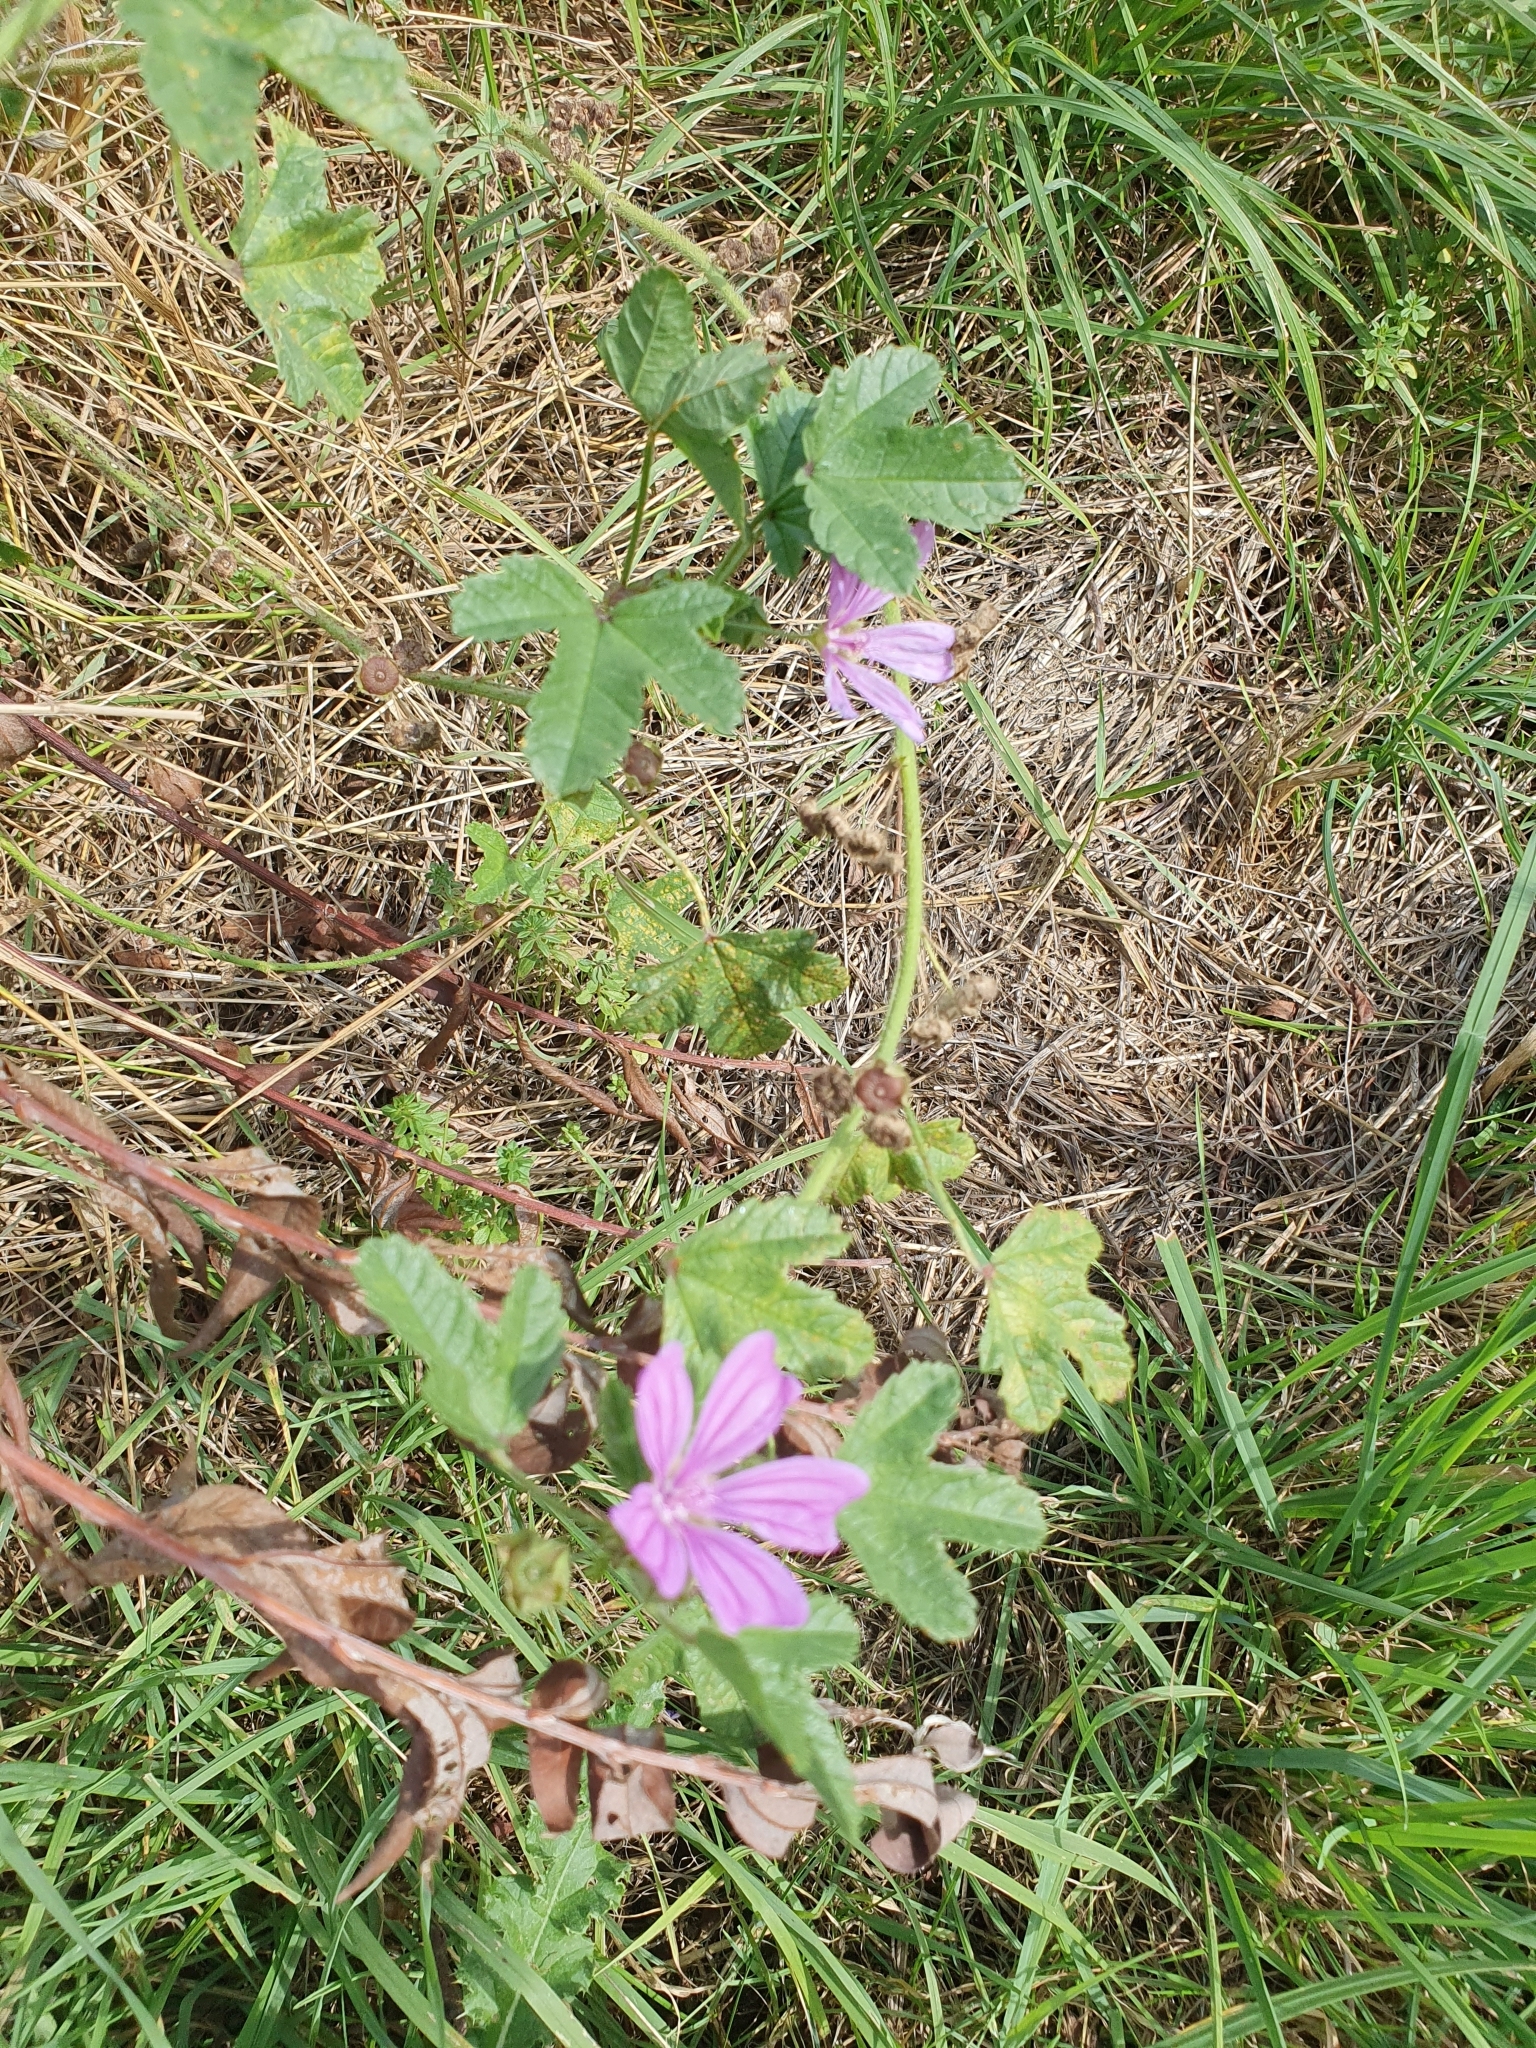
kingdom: Plantae
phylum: Tracheophyta
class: Magnoliopsida
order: Malvales
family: Malvaceae
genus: Malva
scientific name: Malva sylvestris
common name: Common mallow
